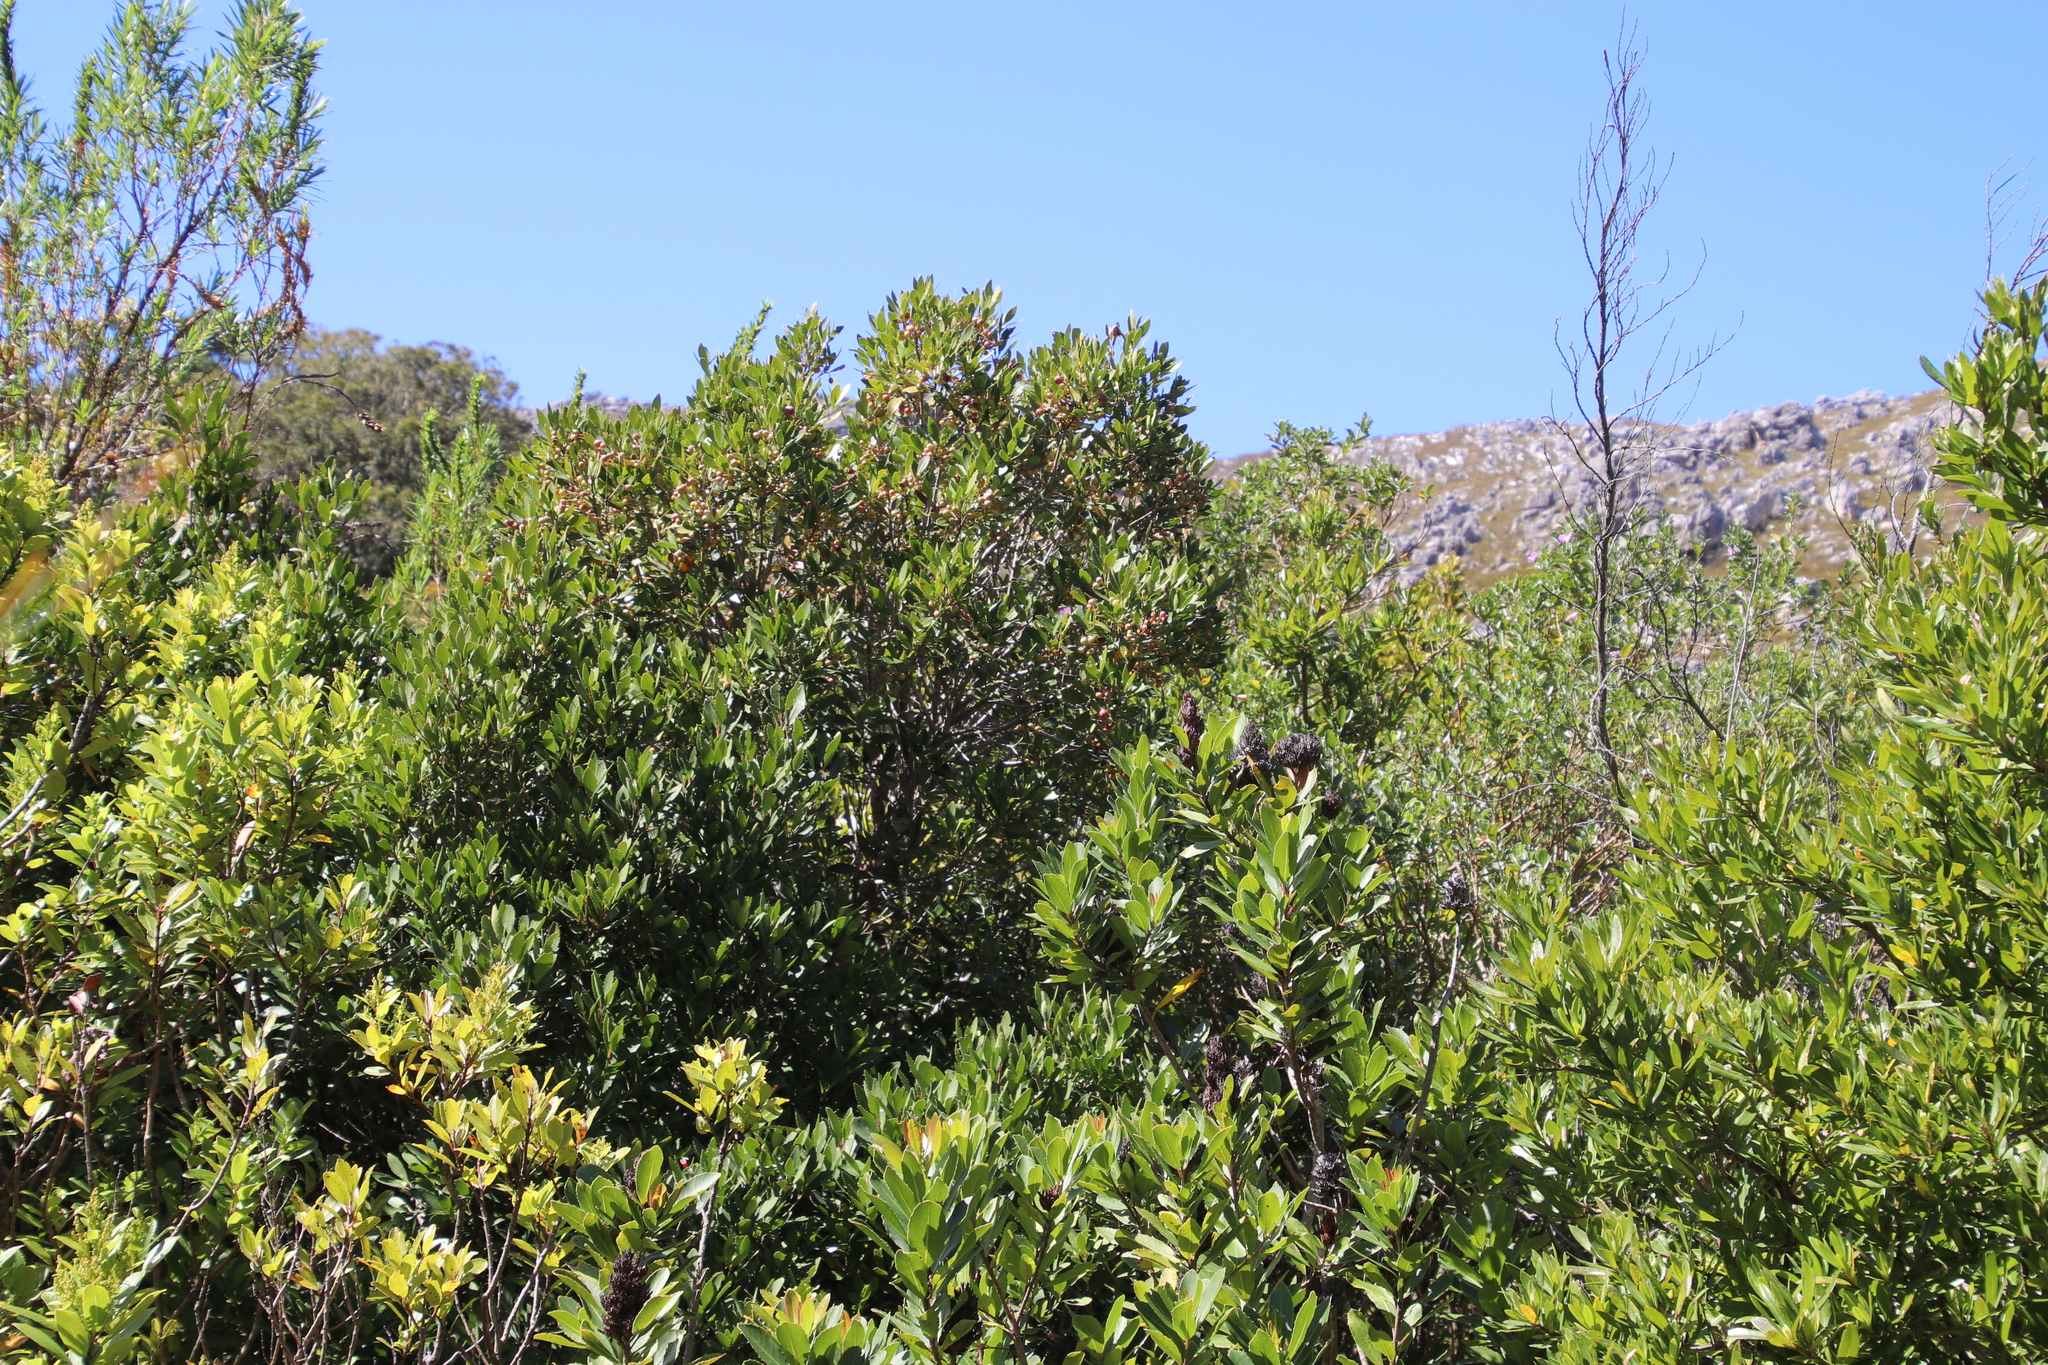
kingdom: Plantae
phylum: Tracheophyta
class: Magnoliopsida
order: Celastrales
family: Celastraceae
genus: Elaeodendron
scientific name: Elaeodendron schinoides
